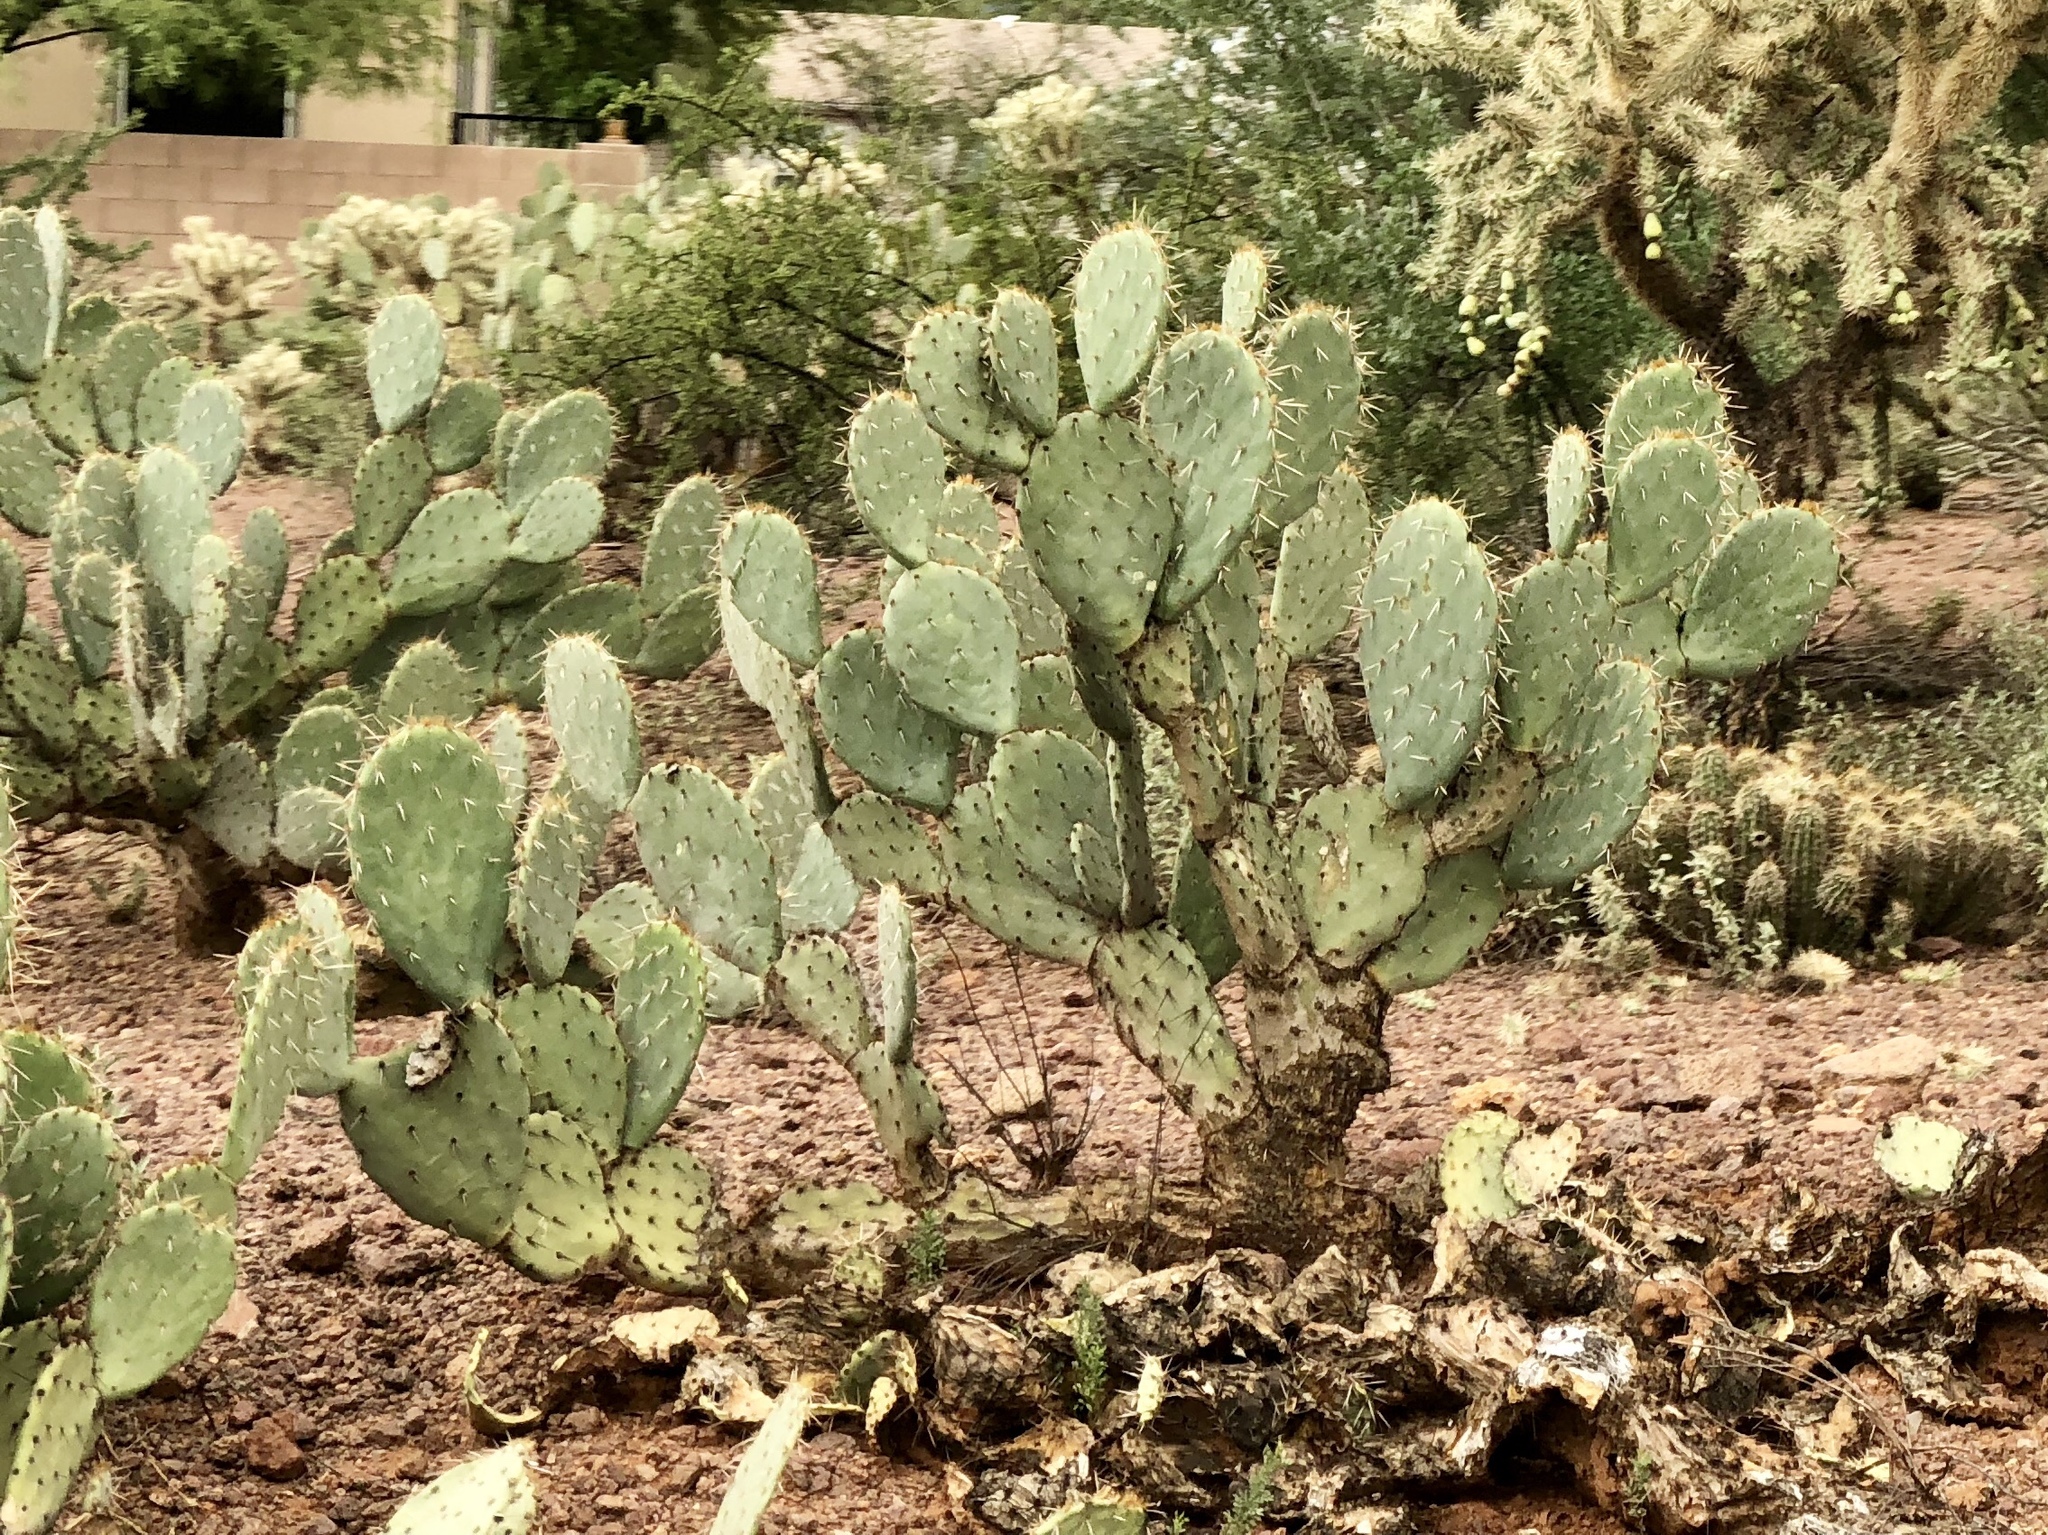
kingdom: Plantae
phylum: Tracheophyta
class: Magnoliopsida
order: Caryophyllales
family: Cactaceae
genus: Opuntia
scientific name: Opuntia engelmannii
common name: Cactus-apple
